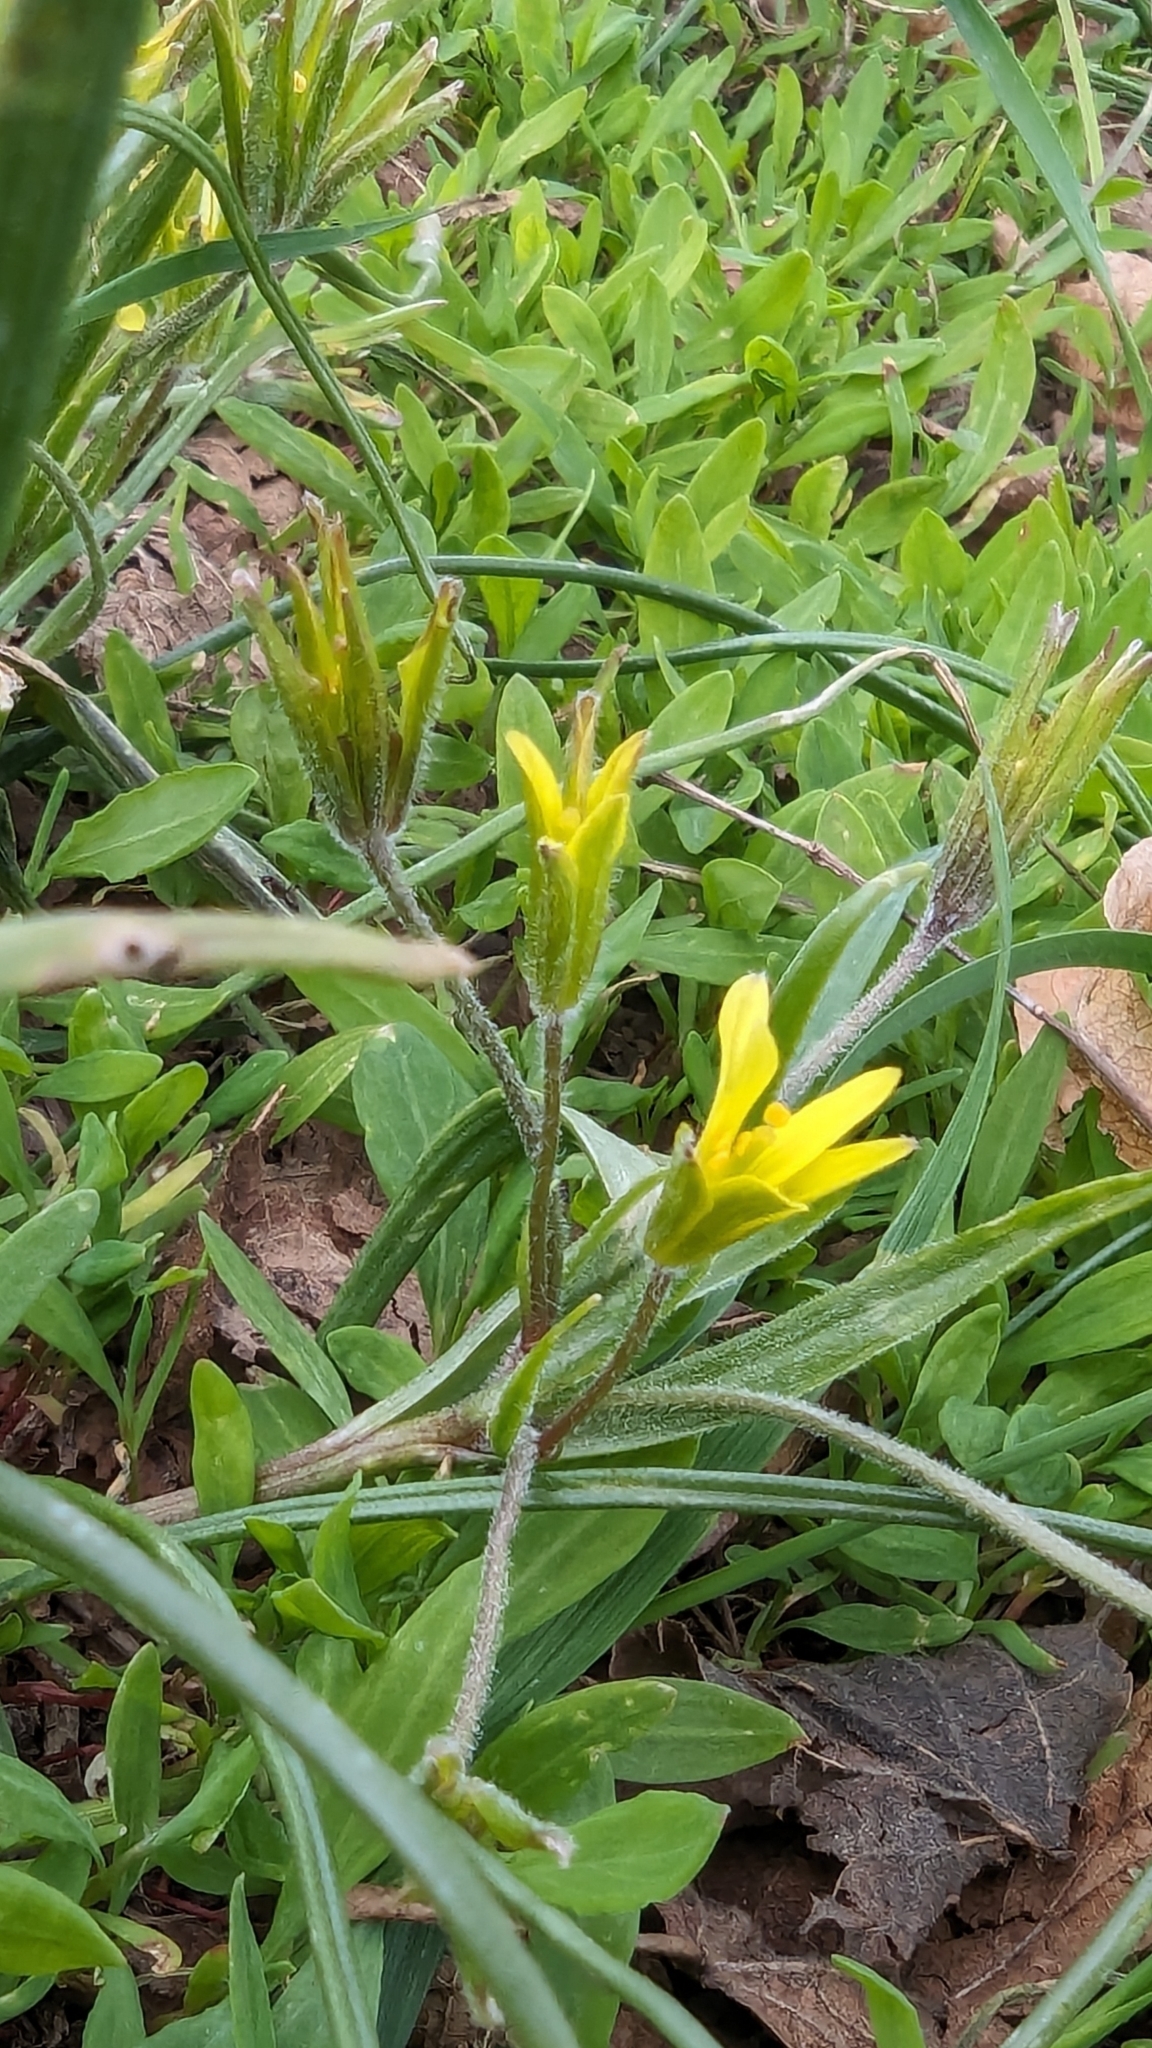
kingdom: Plantae
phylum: Tracheophyta
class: Liliopsida
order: Liliales
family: Liliaceae
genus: Gagea
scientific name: Gagea villosa
